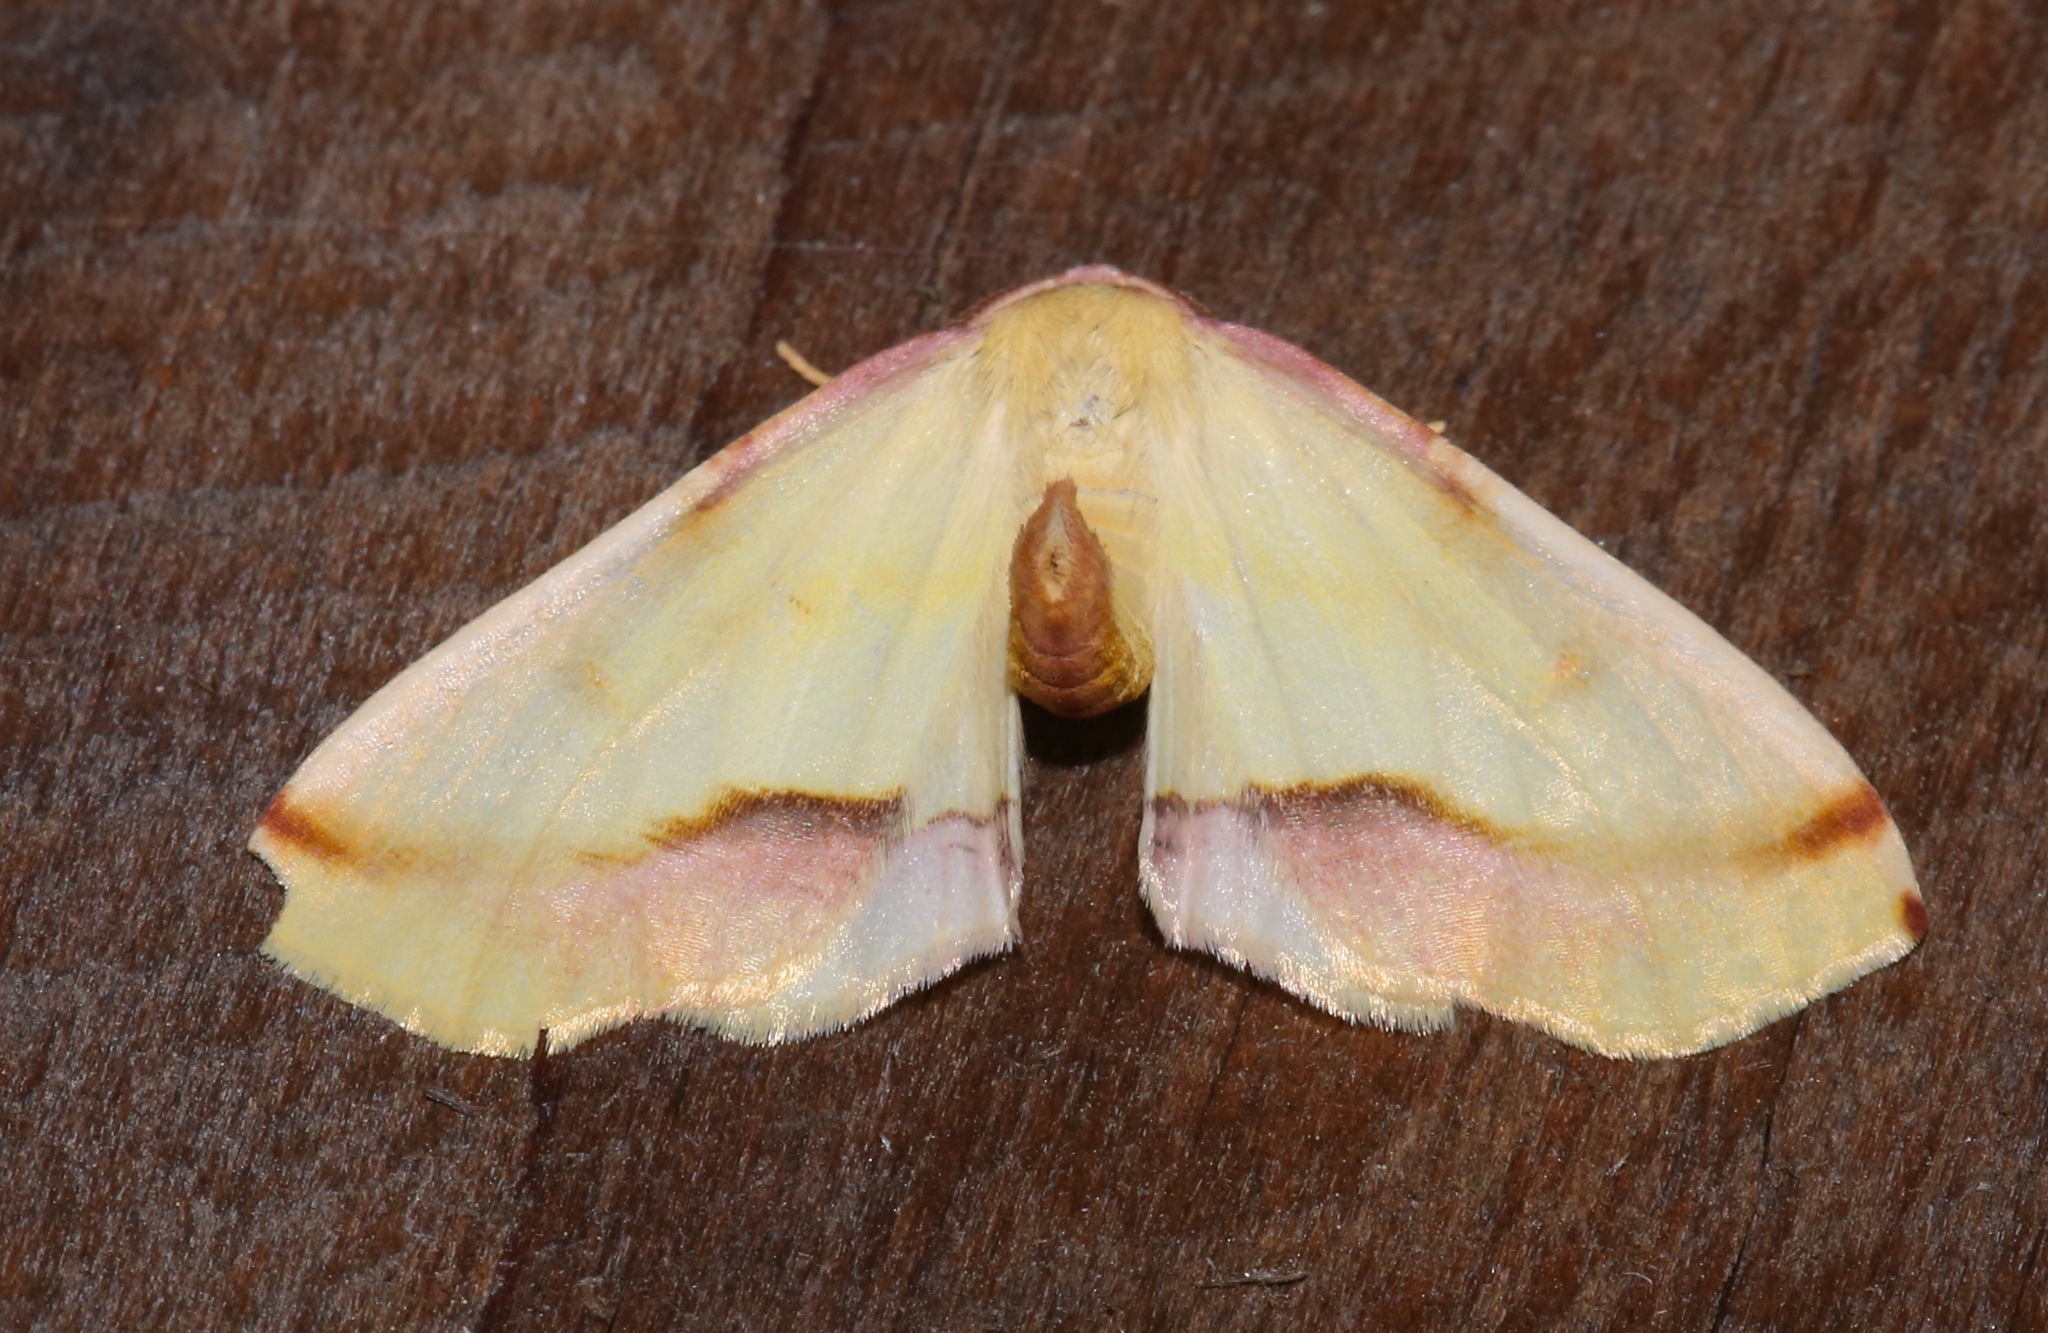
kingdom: Animalia
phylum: Arthropoda
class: Insecta
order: Lepidoptera
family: Geometridae
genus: Plagodis
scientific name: Plagodis serinaria
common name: Lemon plagodis
